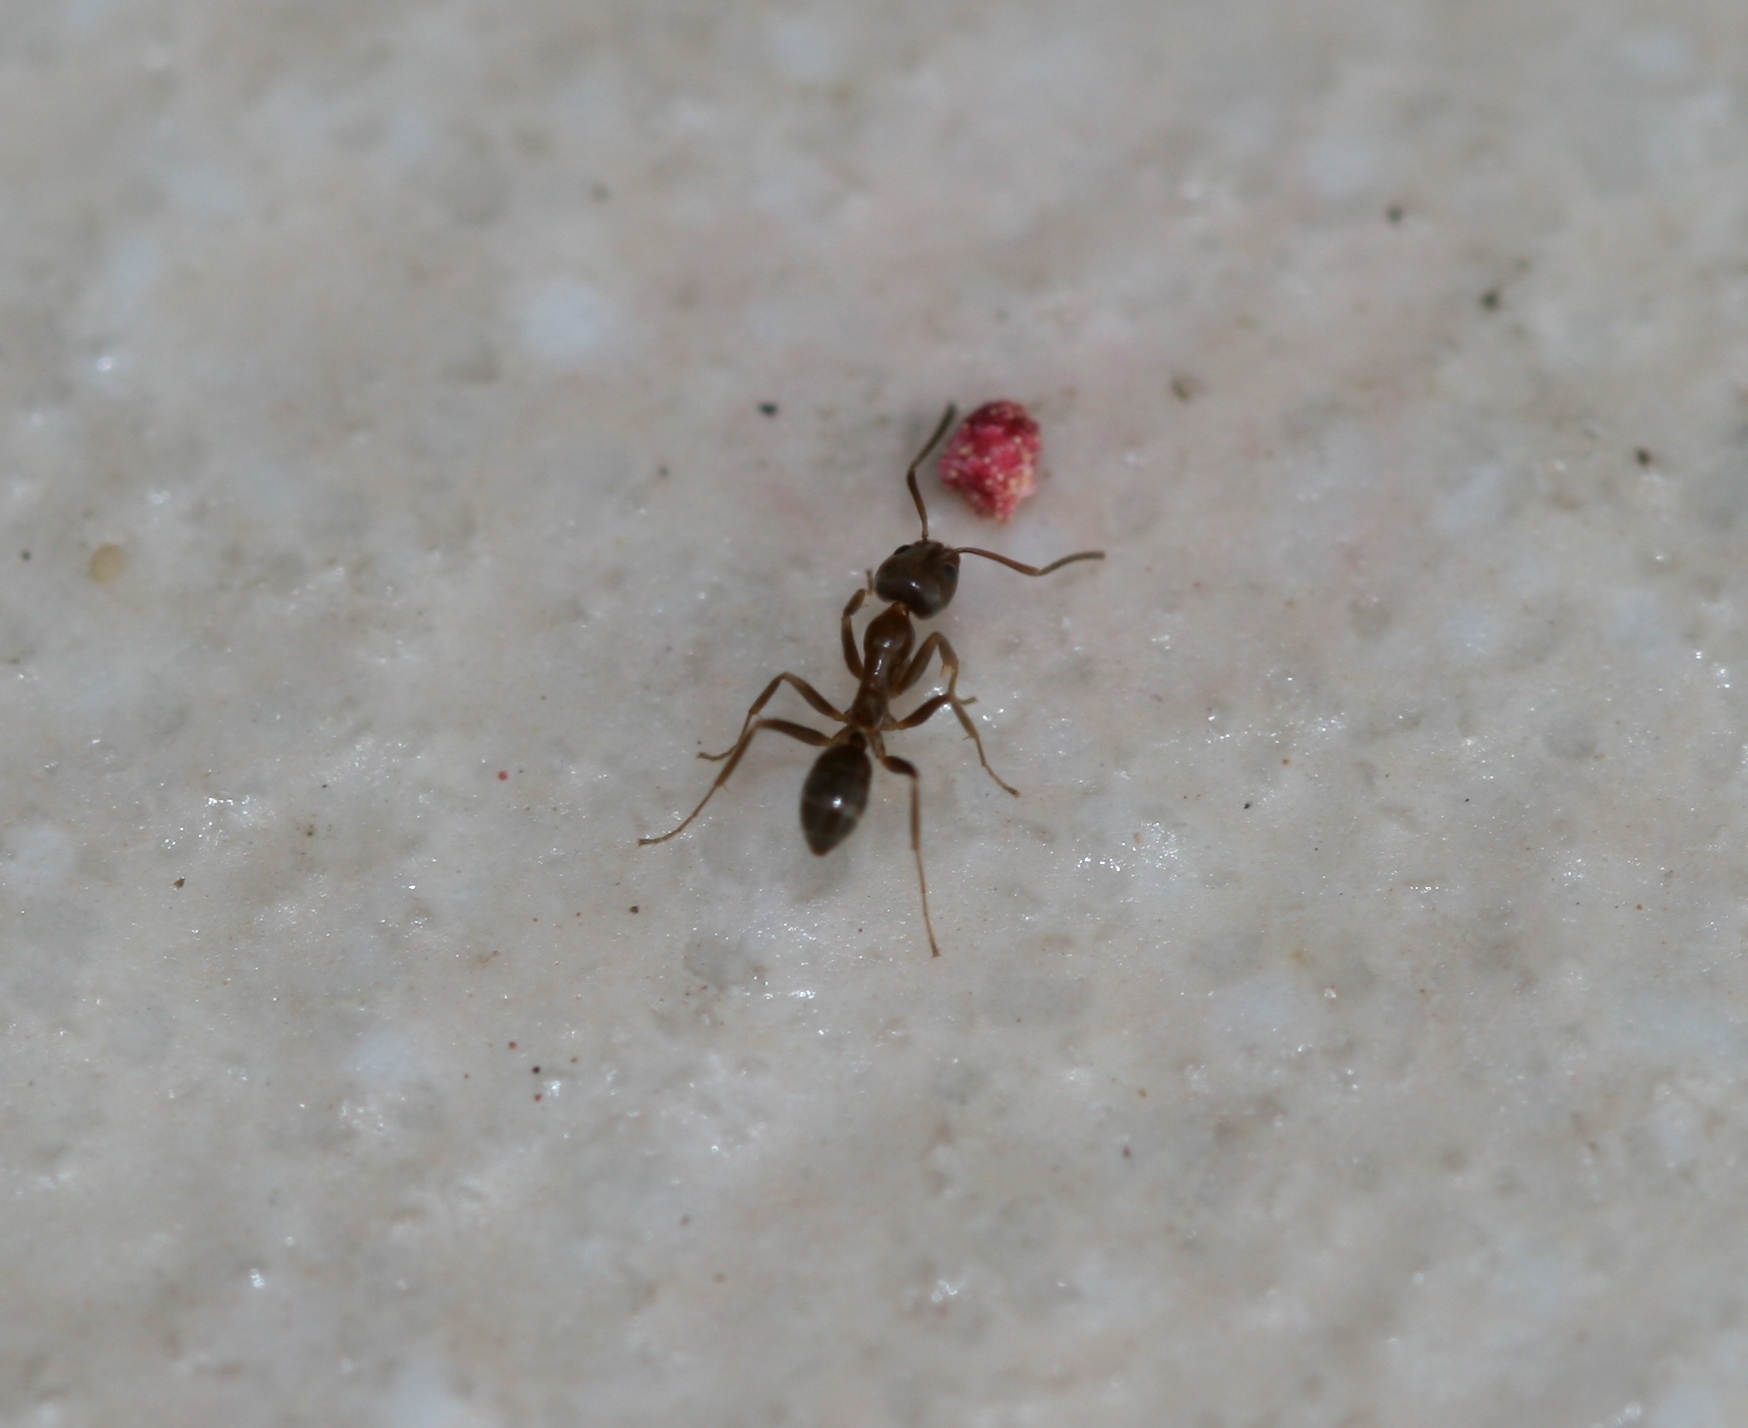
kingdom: Animalia
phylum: Arthropoda
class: Insecta
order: Hymenoptera
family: Formicidae
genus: Linepithema
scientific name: Linepithema humile
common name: Argentine ant
